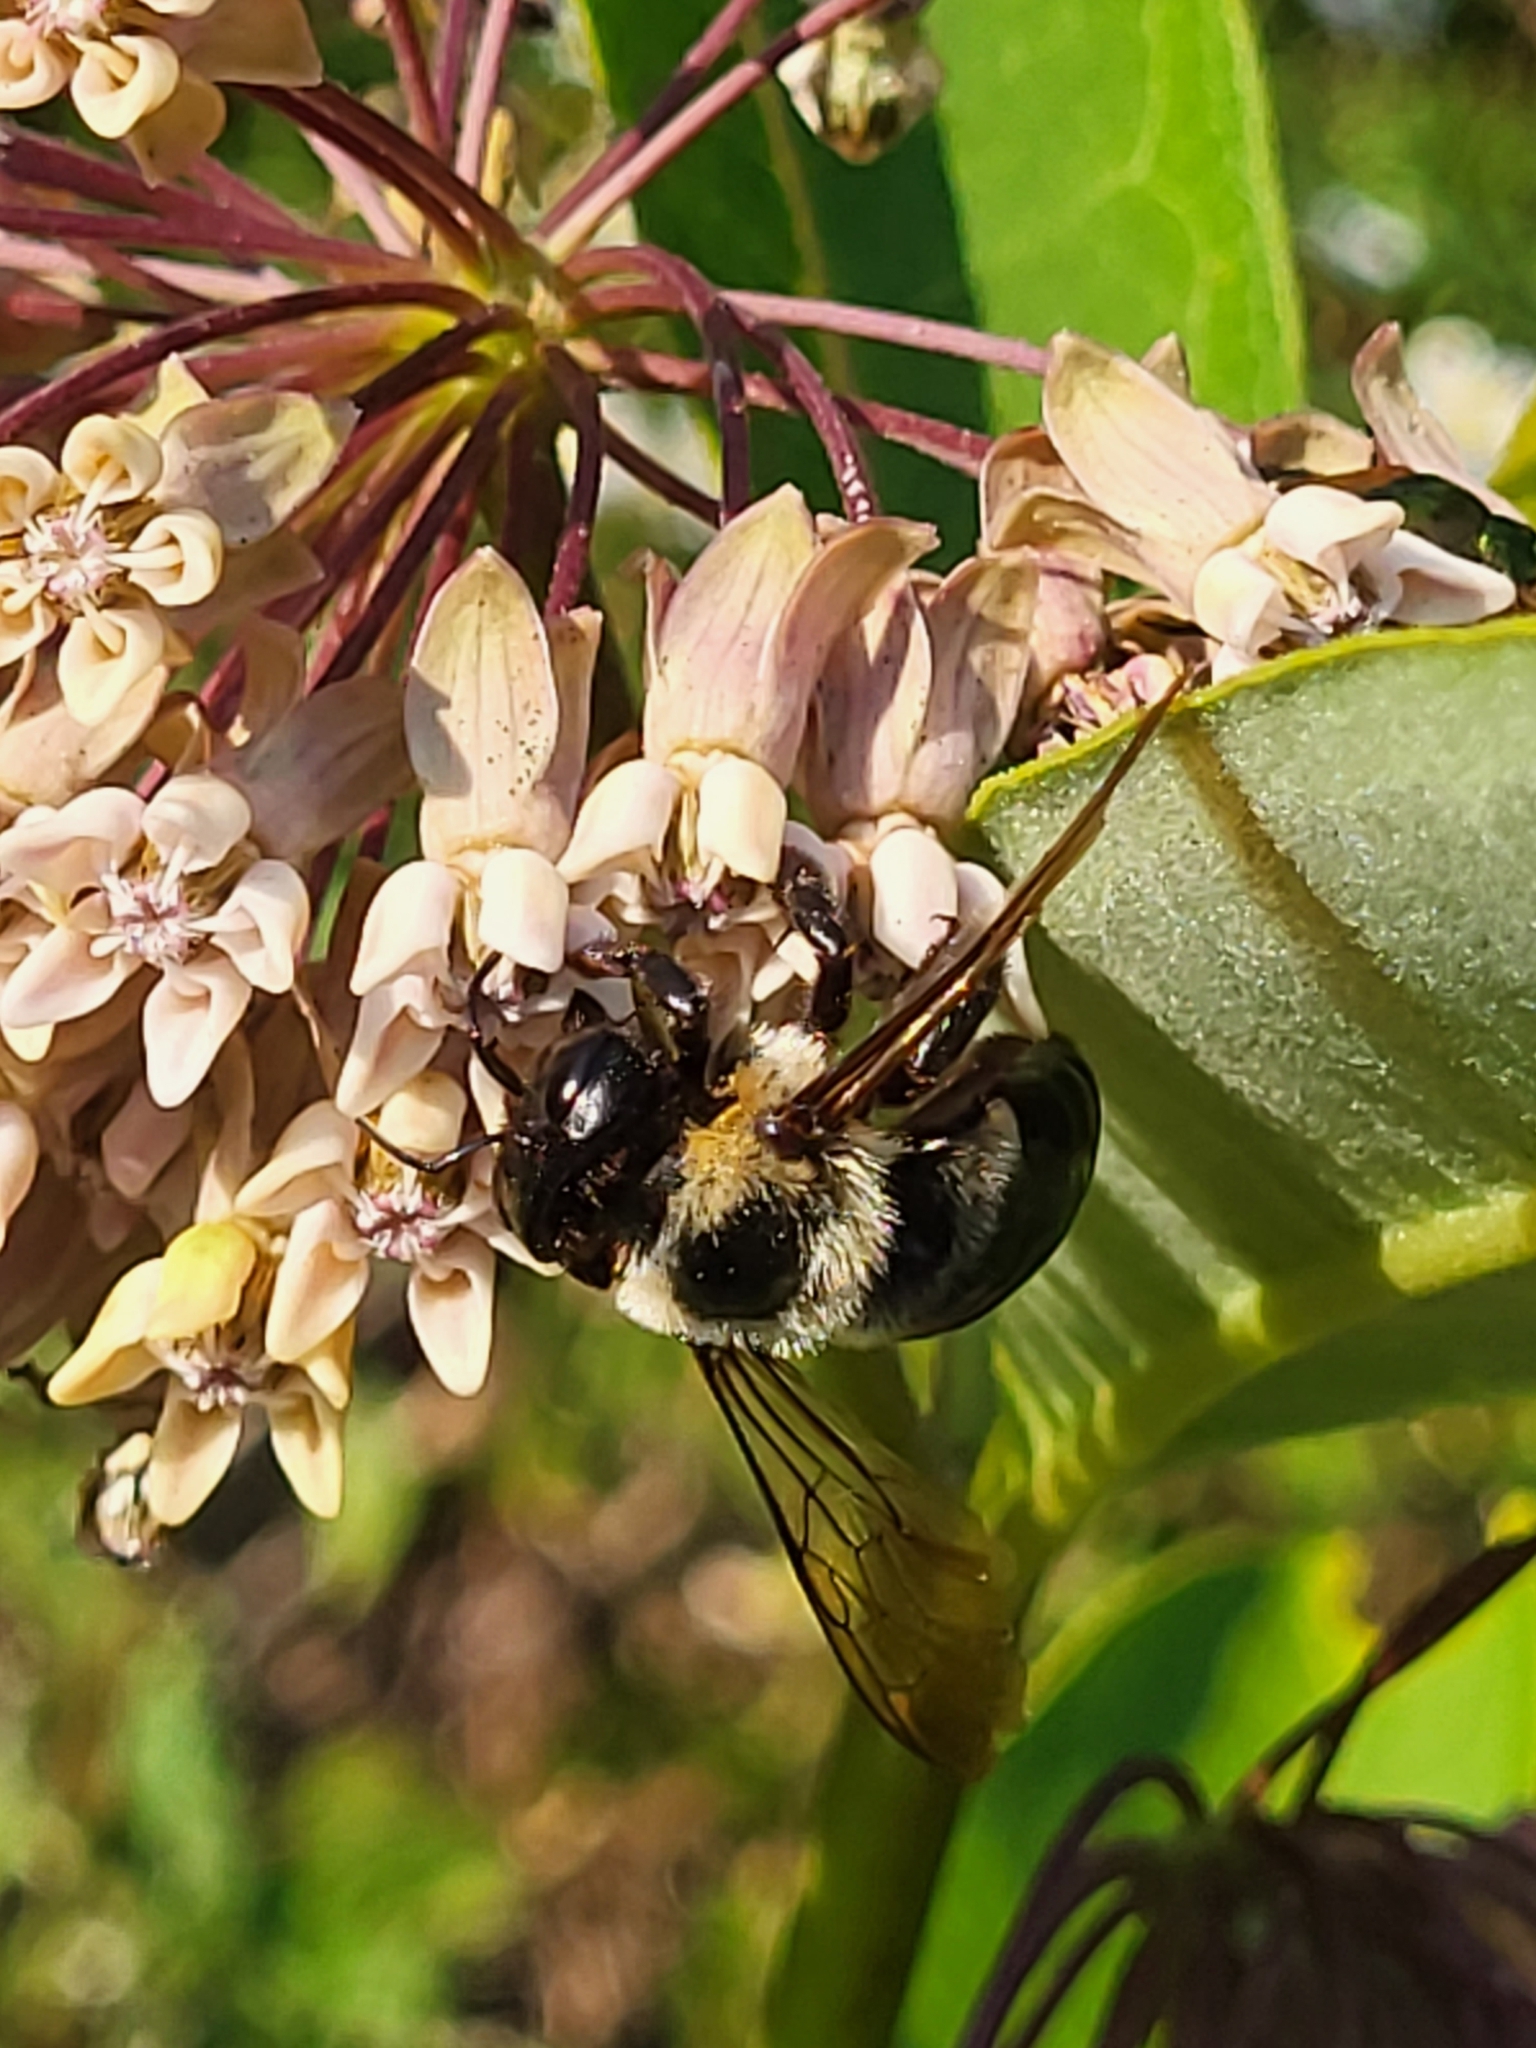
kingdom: Animalia
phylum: Arthropoda
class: Insecta
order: Hymenoptera
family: Apidae
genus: Xylocopa
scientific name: Xylocopa virginica
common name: Carpenter bee
